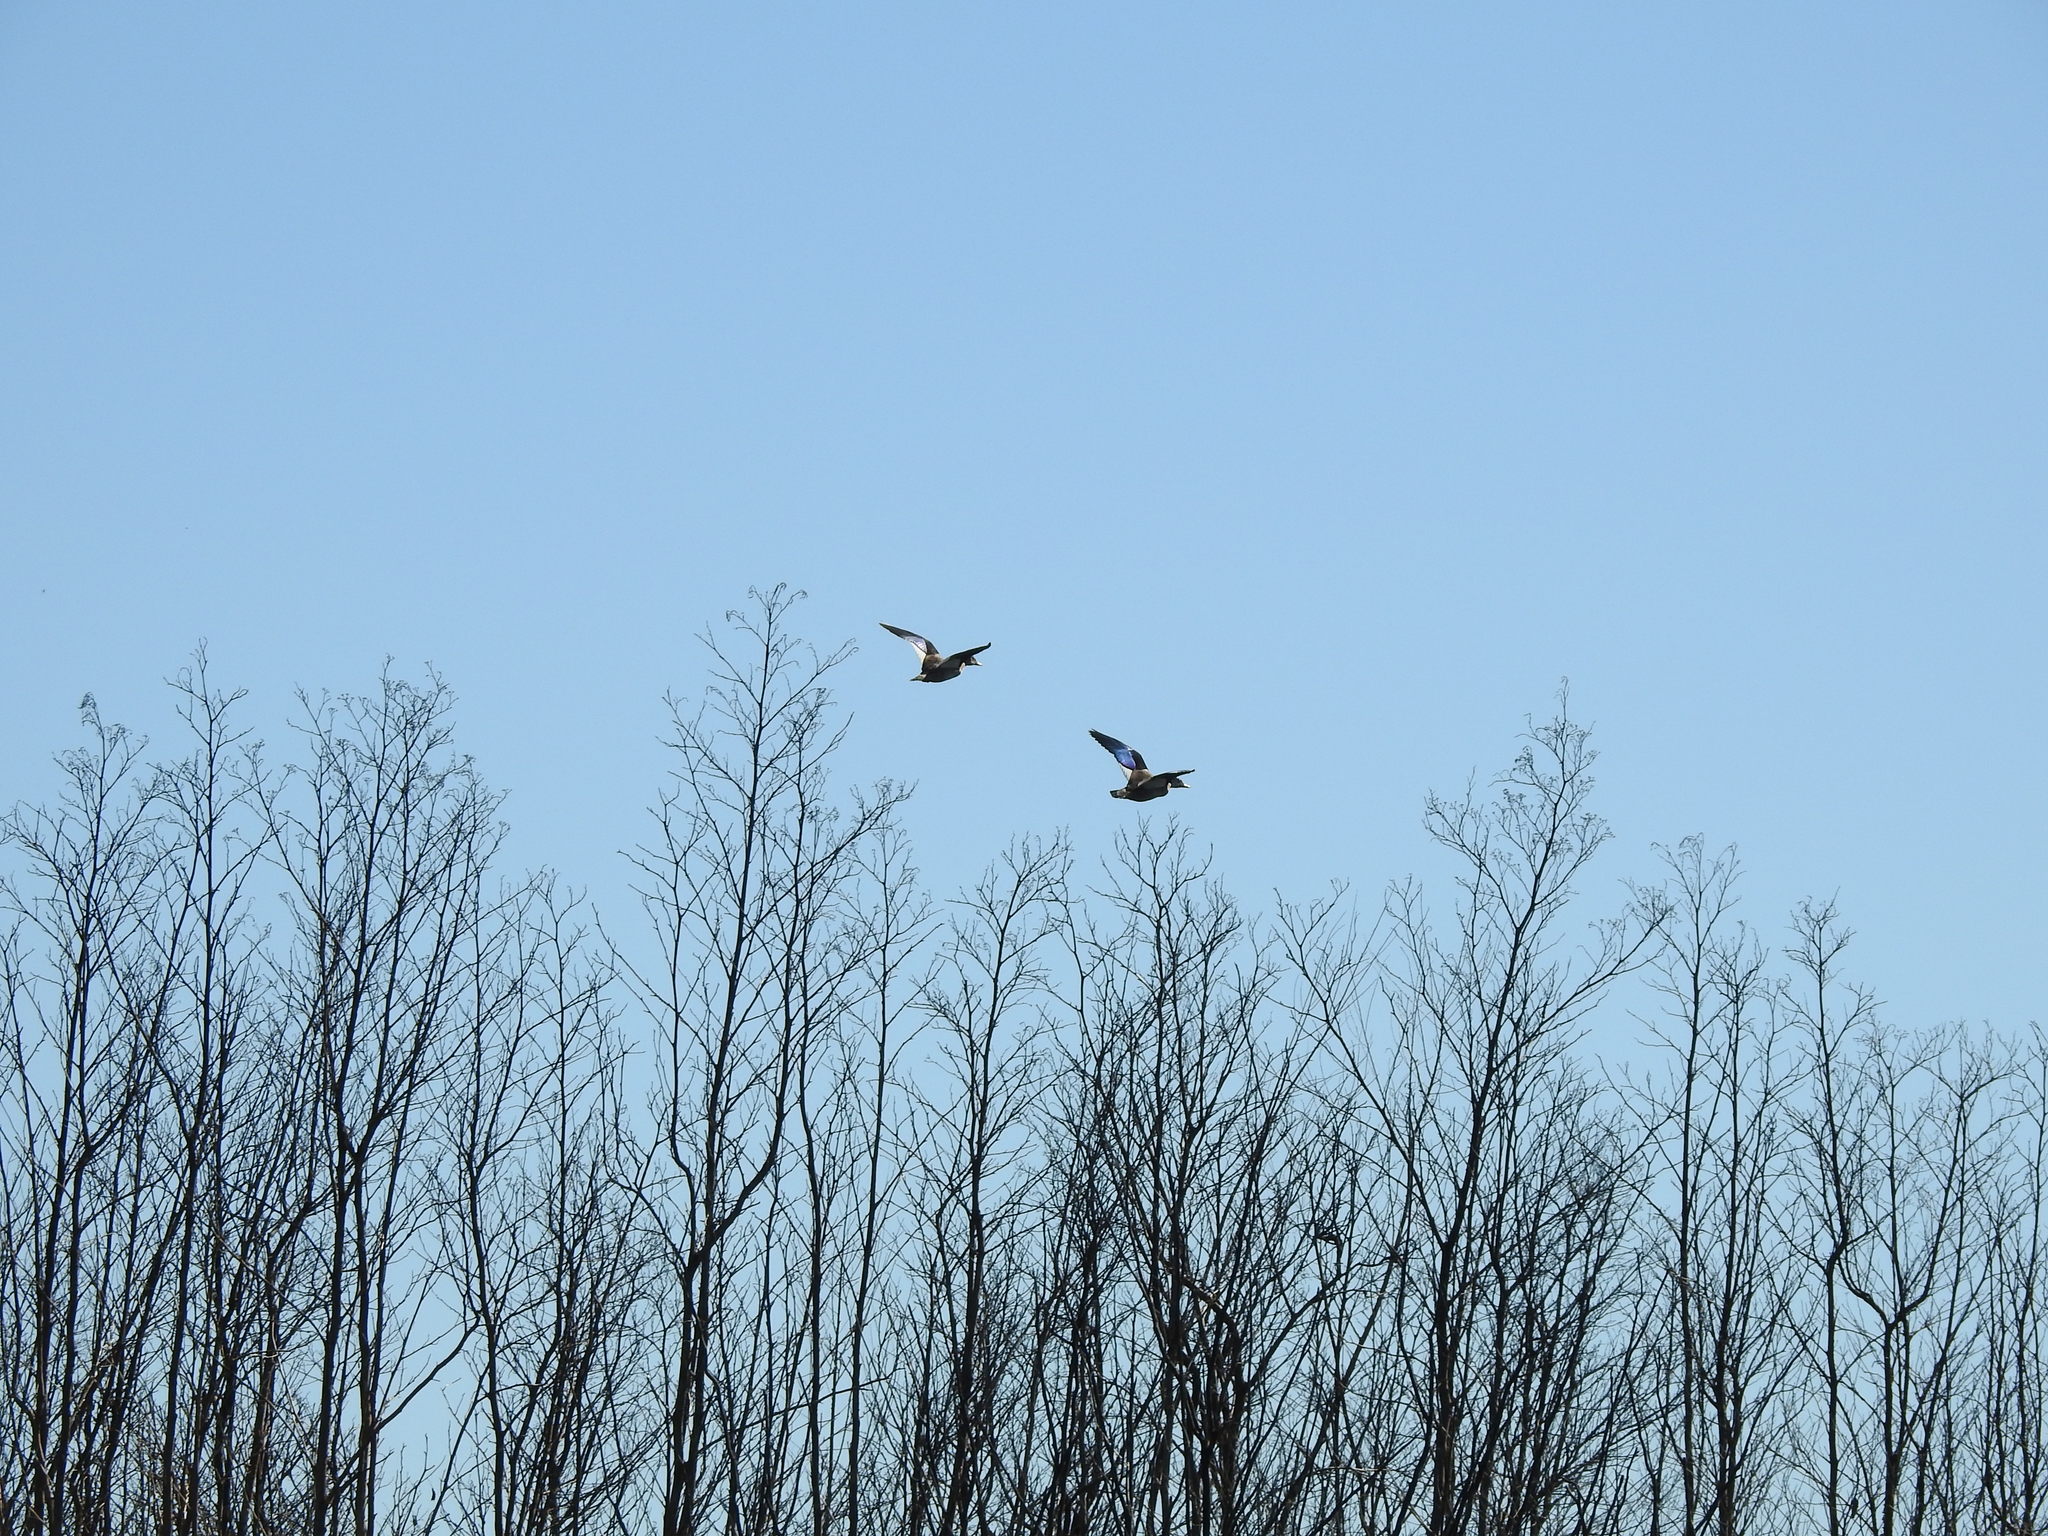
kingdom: Animalia
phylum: Chordata
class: Aves
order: Anseriformes
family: Anatidae
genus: Amazonetta
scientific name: Amazonetta brasiliensis
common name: Brazilian teal
